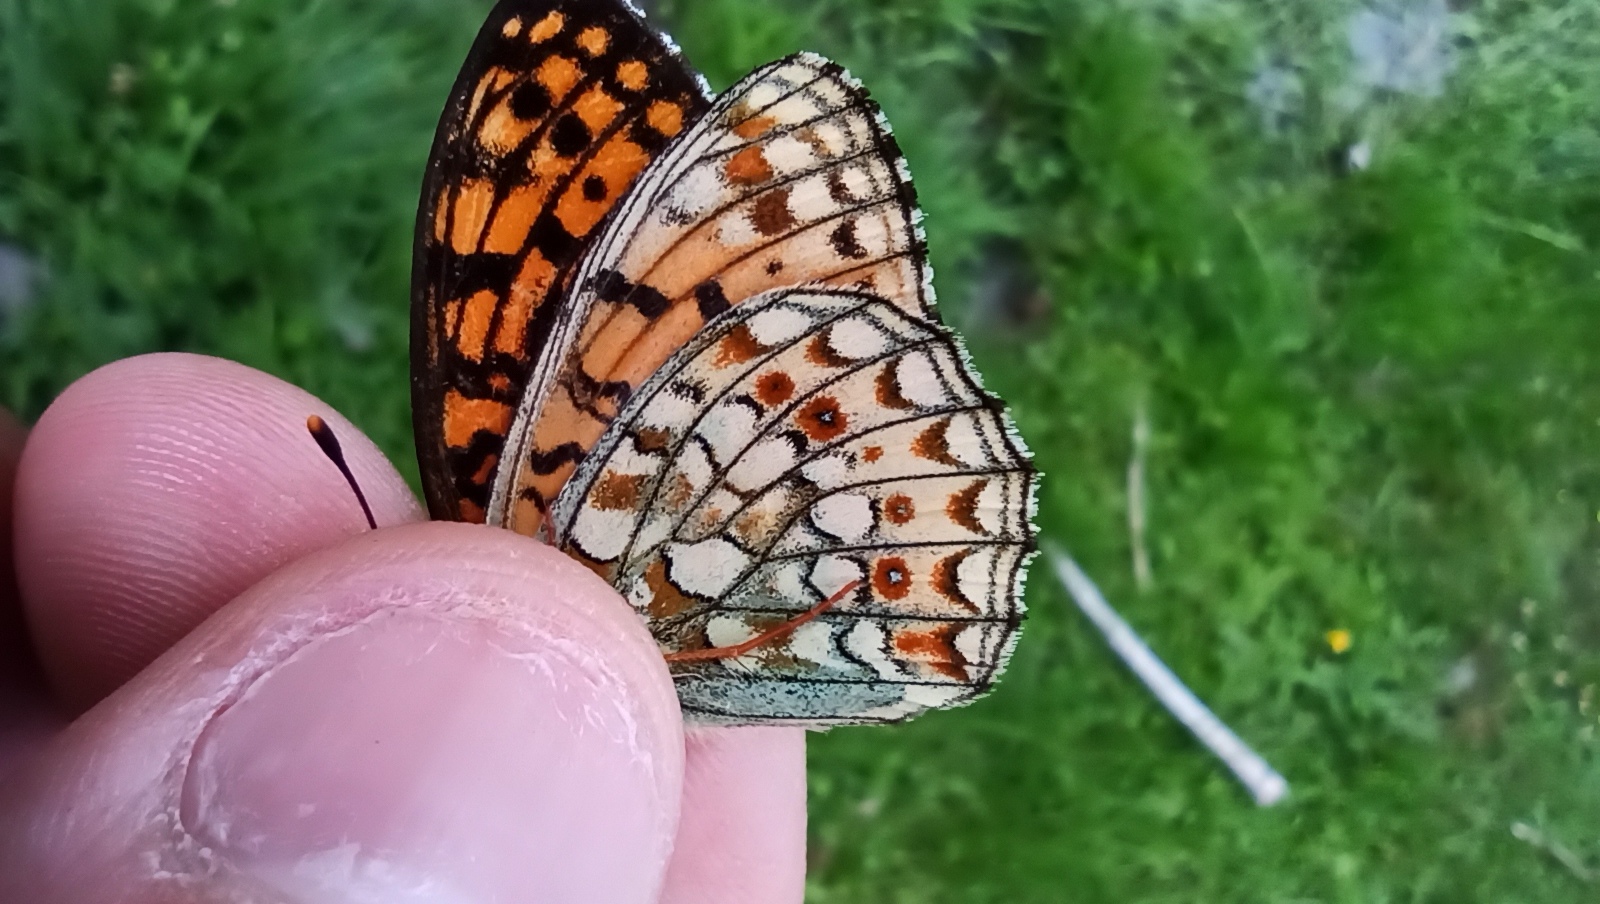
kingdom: Animalia
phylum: Arthropoda
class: Insecta
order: Lepidoptera
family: Nymphalidae
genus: Fabriciana
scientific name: Fabriciana niobe
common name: Niobe fritillary
